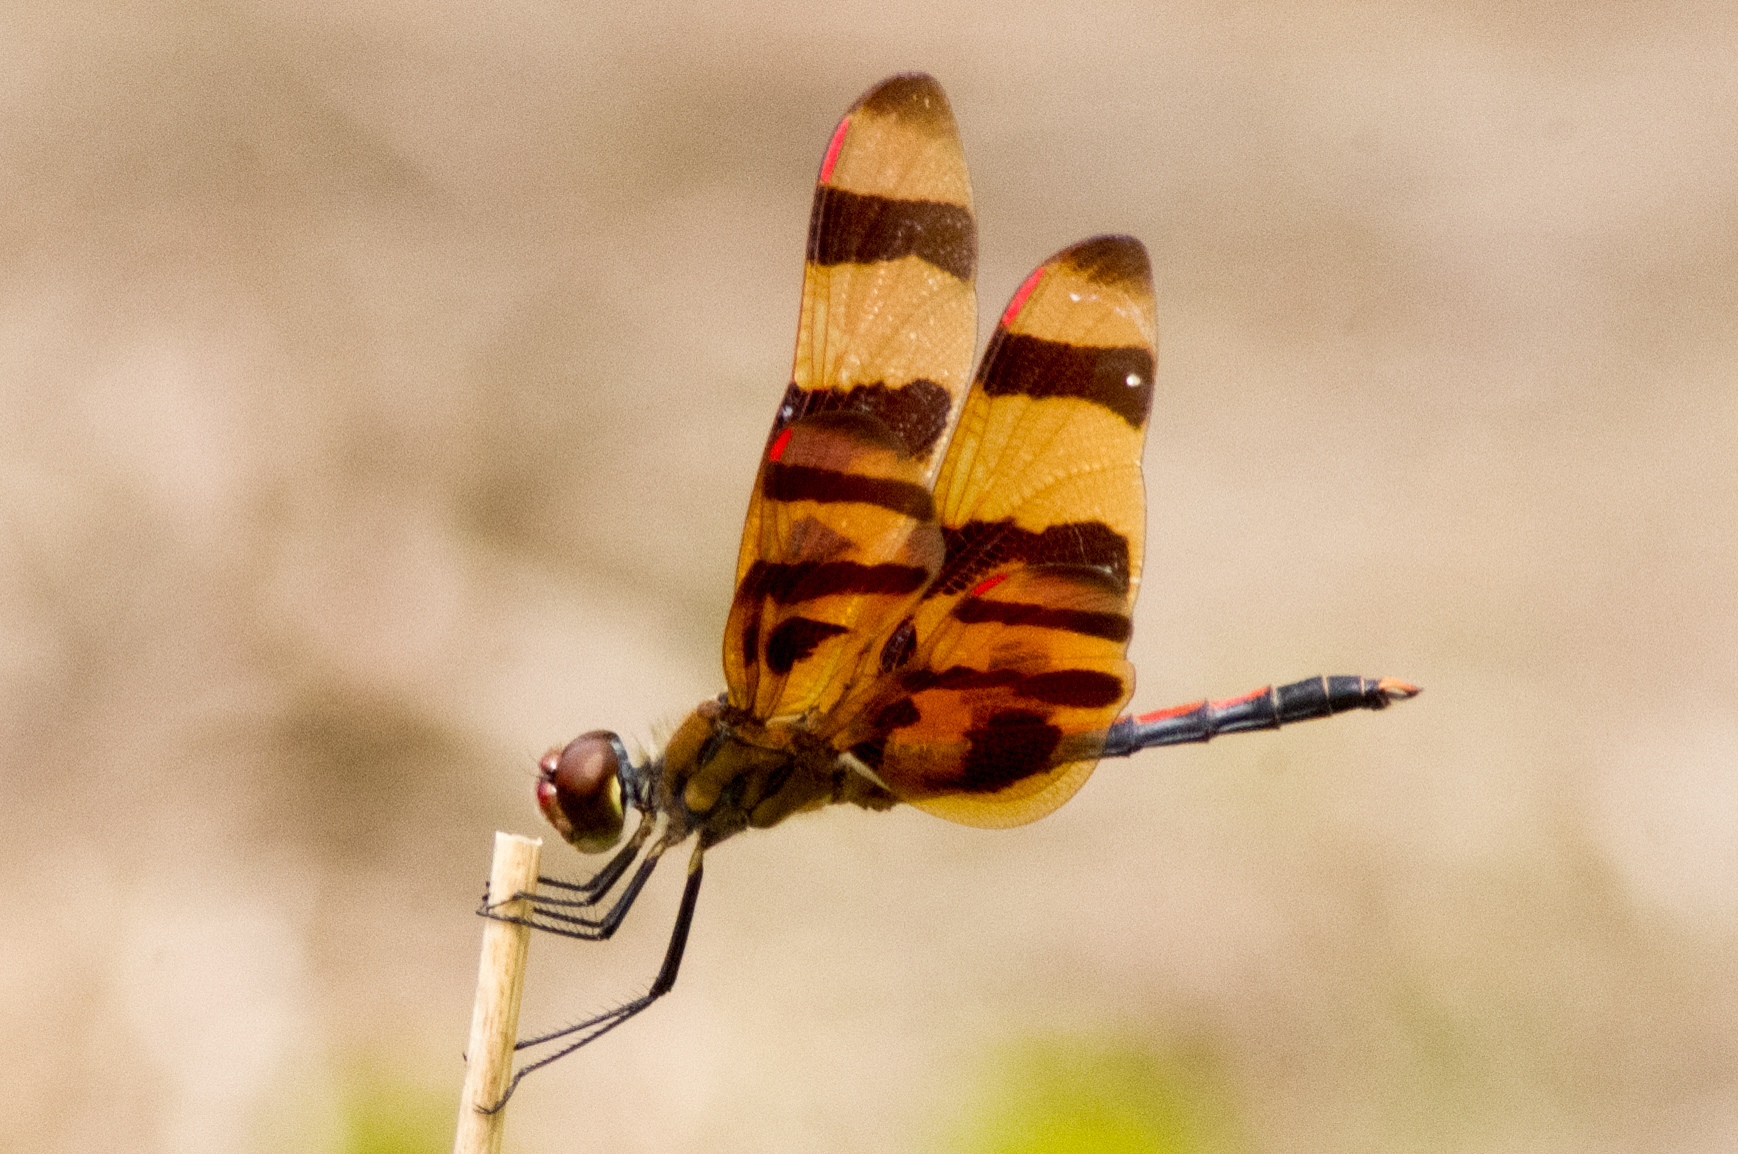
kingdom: Animalia
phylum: Arthropoda
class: Insecta
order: Odonata
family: Libellulidae
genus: Celithemis
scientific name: Celithemis eponina
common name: Halloween pennant
